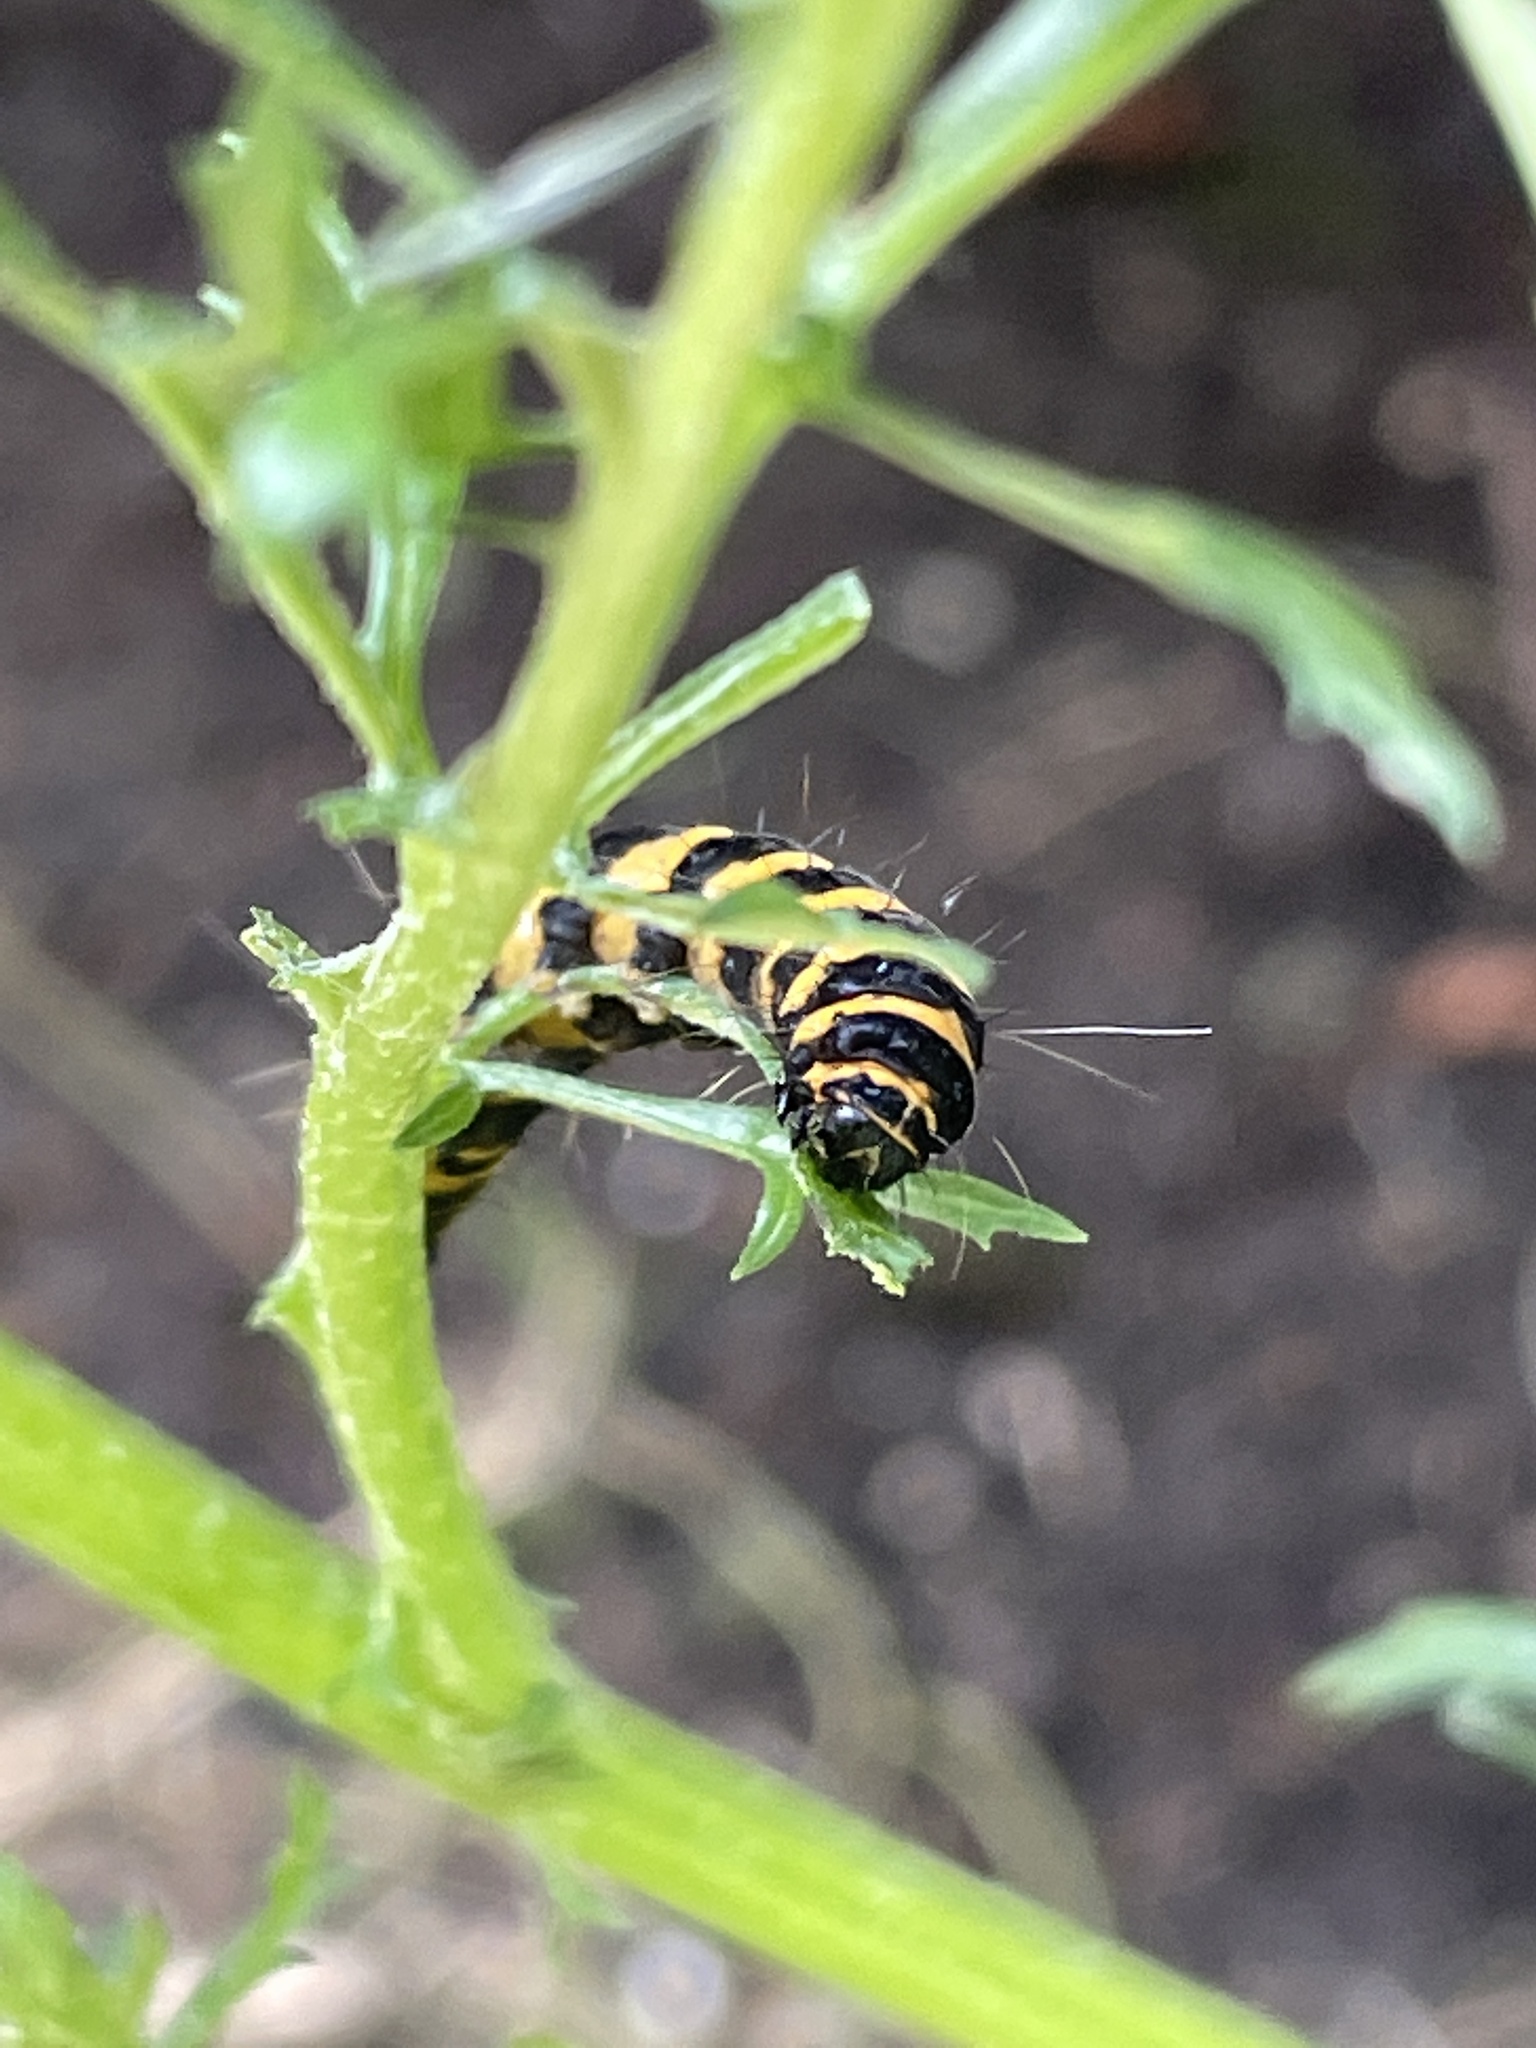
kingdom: Animalia
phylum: Arthropoda
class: Insecta
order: Lepidoptera
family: Erebidae
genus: Tyria
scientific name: Tyria jacobaeae
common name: Cinnabar
